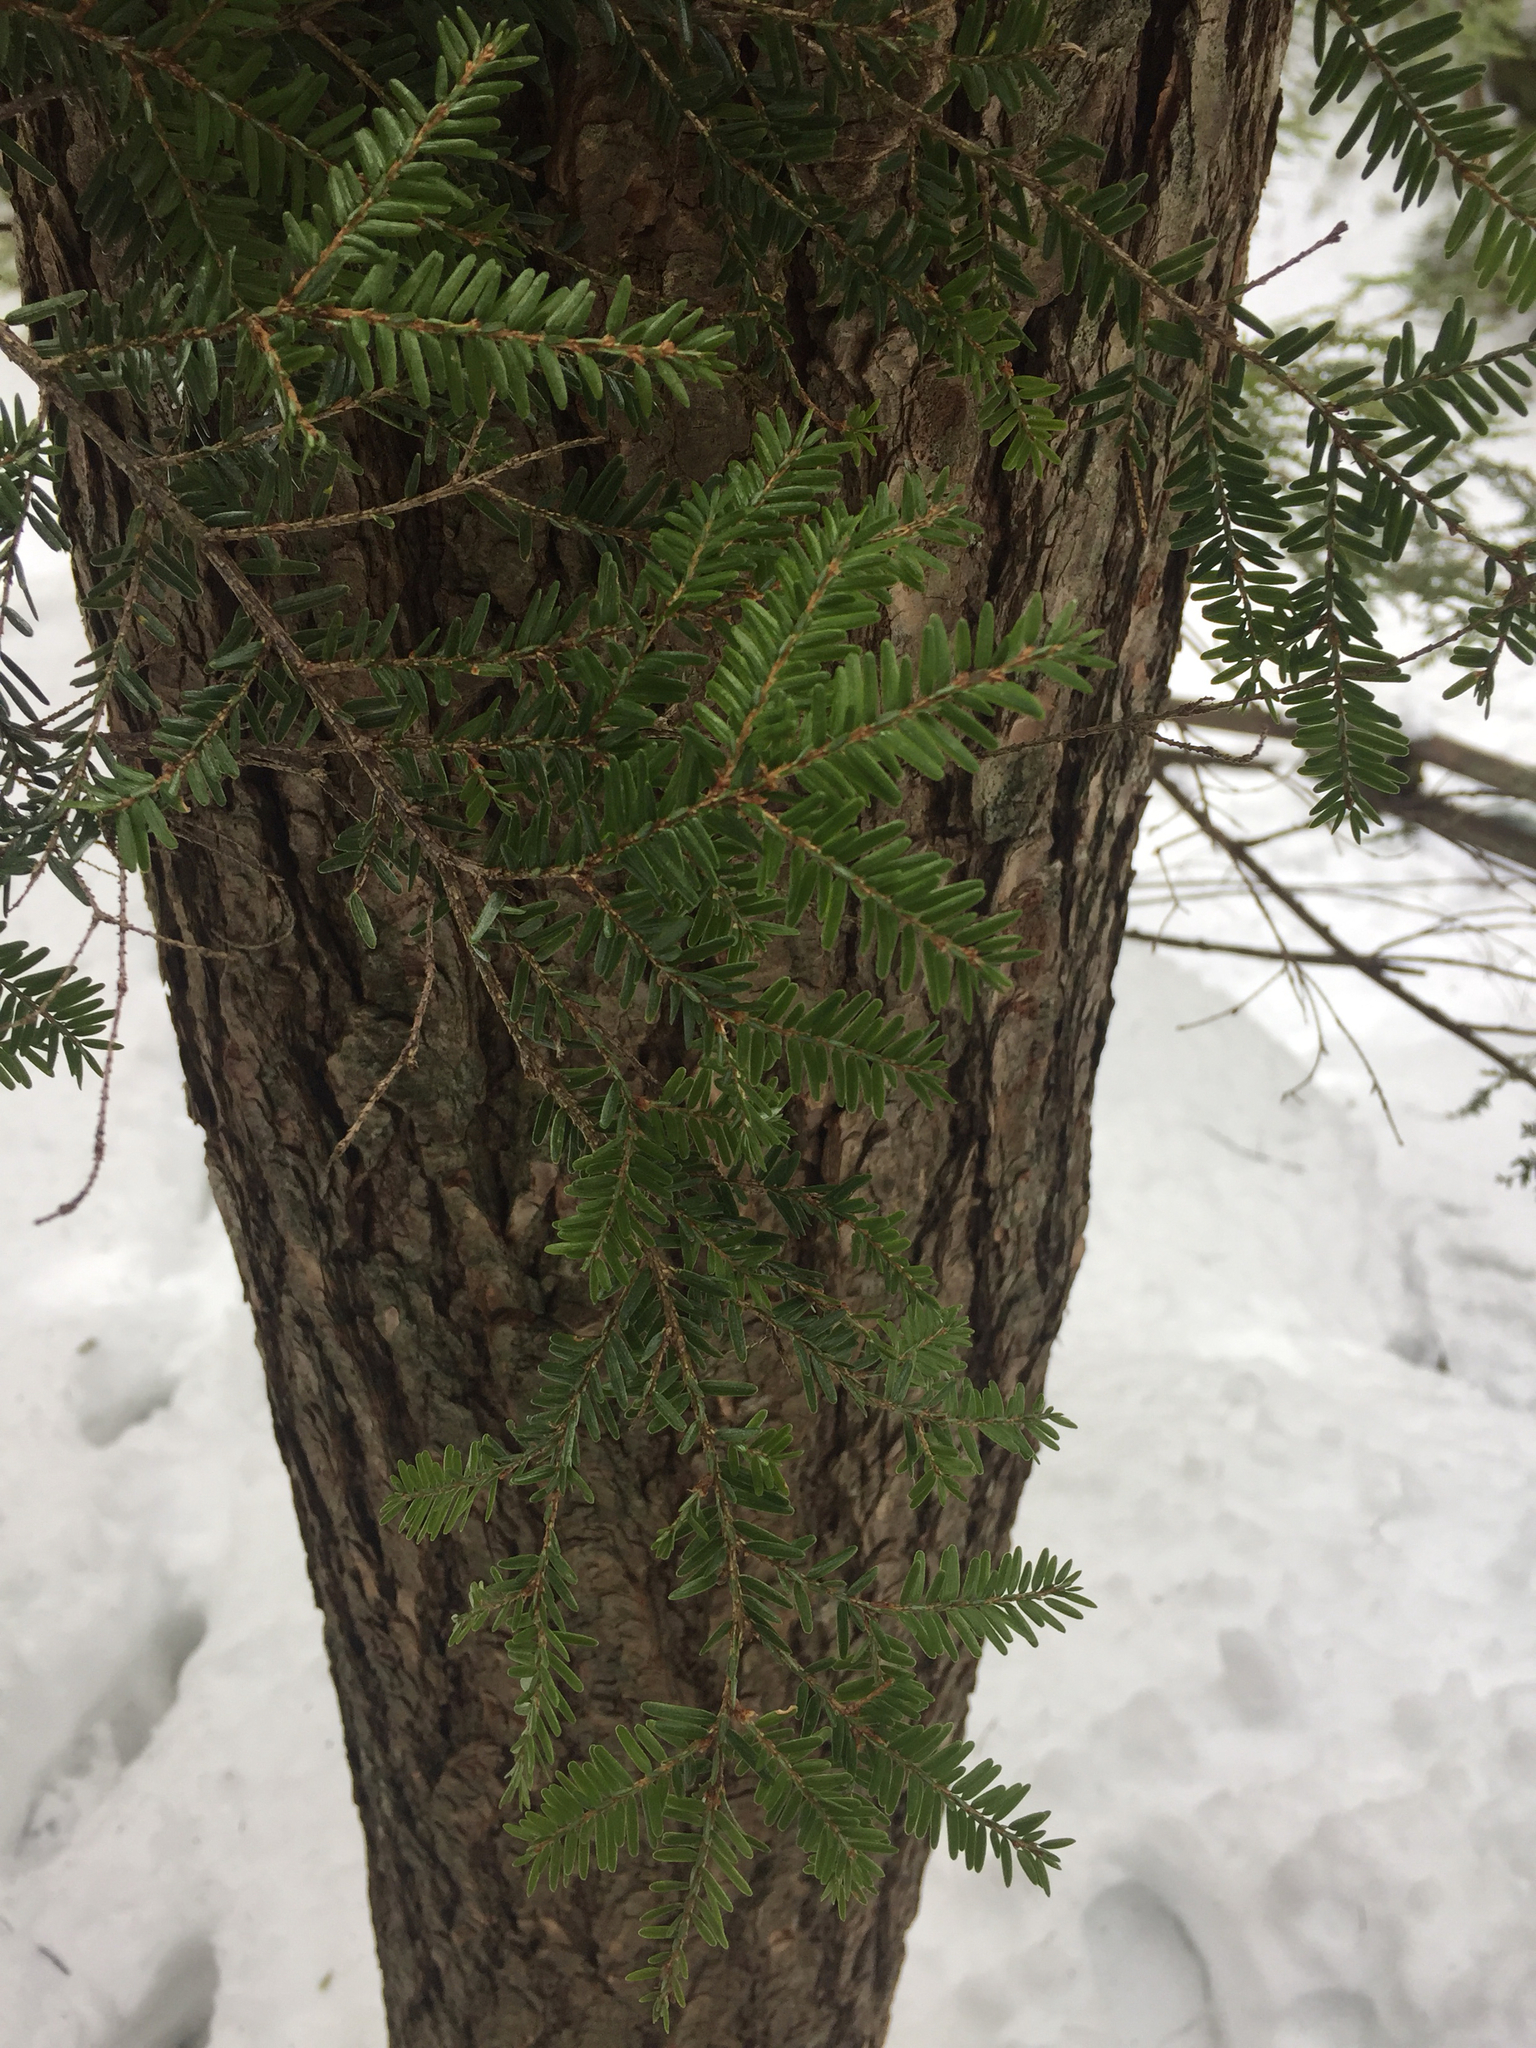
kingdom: Plantae
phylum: Tracheophyta
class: Pinopsida
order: Pinales
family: Pinaceae
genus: Tsuga
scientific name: Tsuga canadensis
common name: Eastern hemlock
